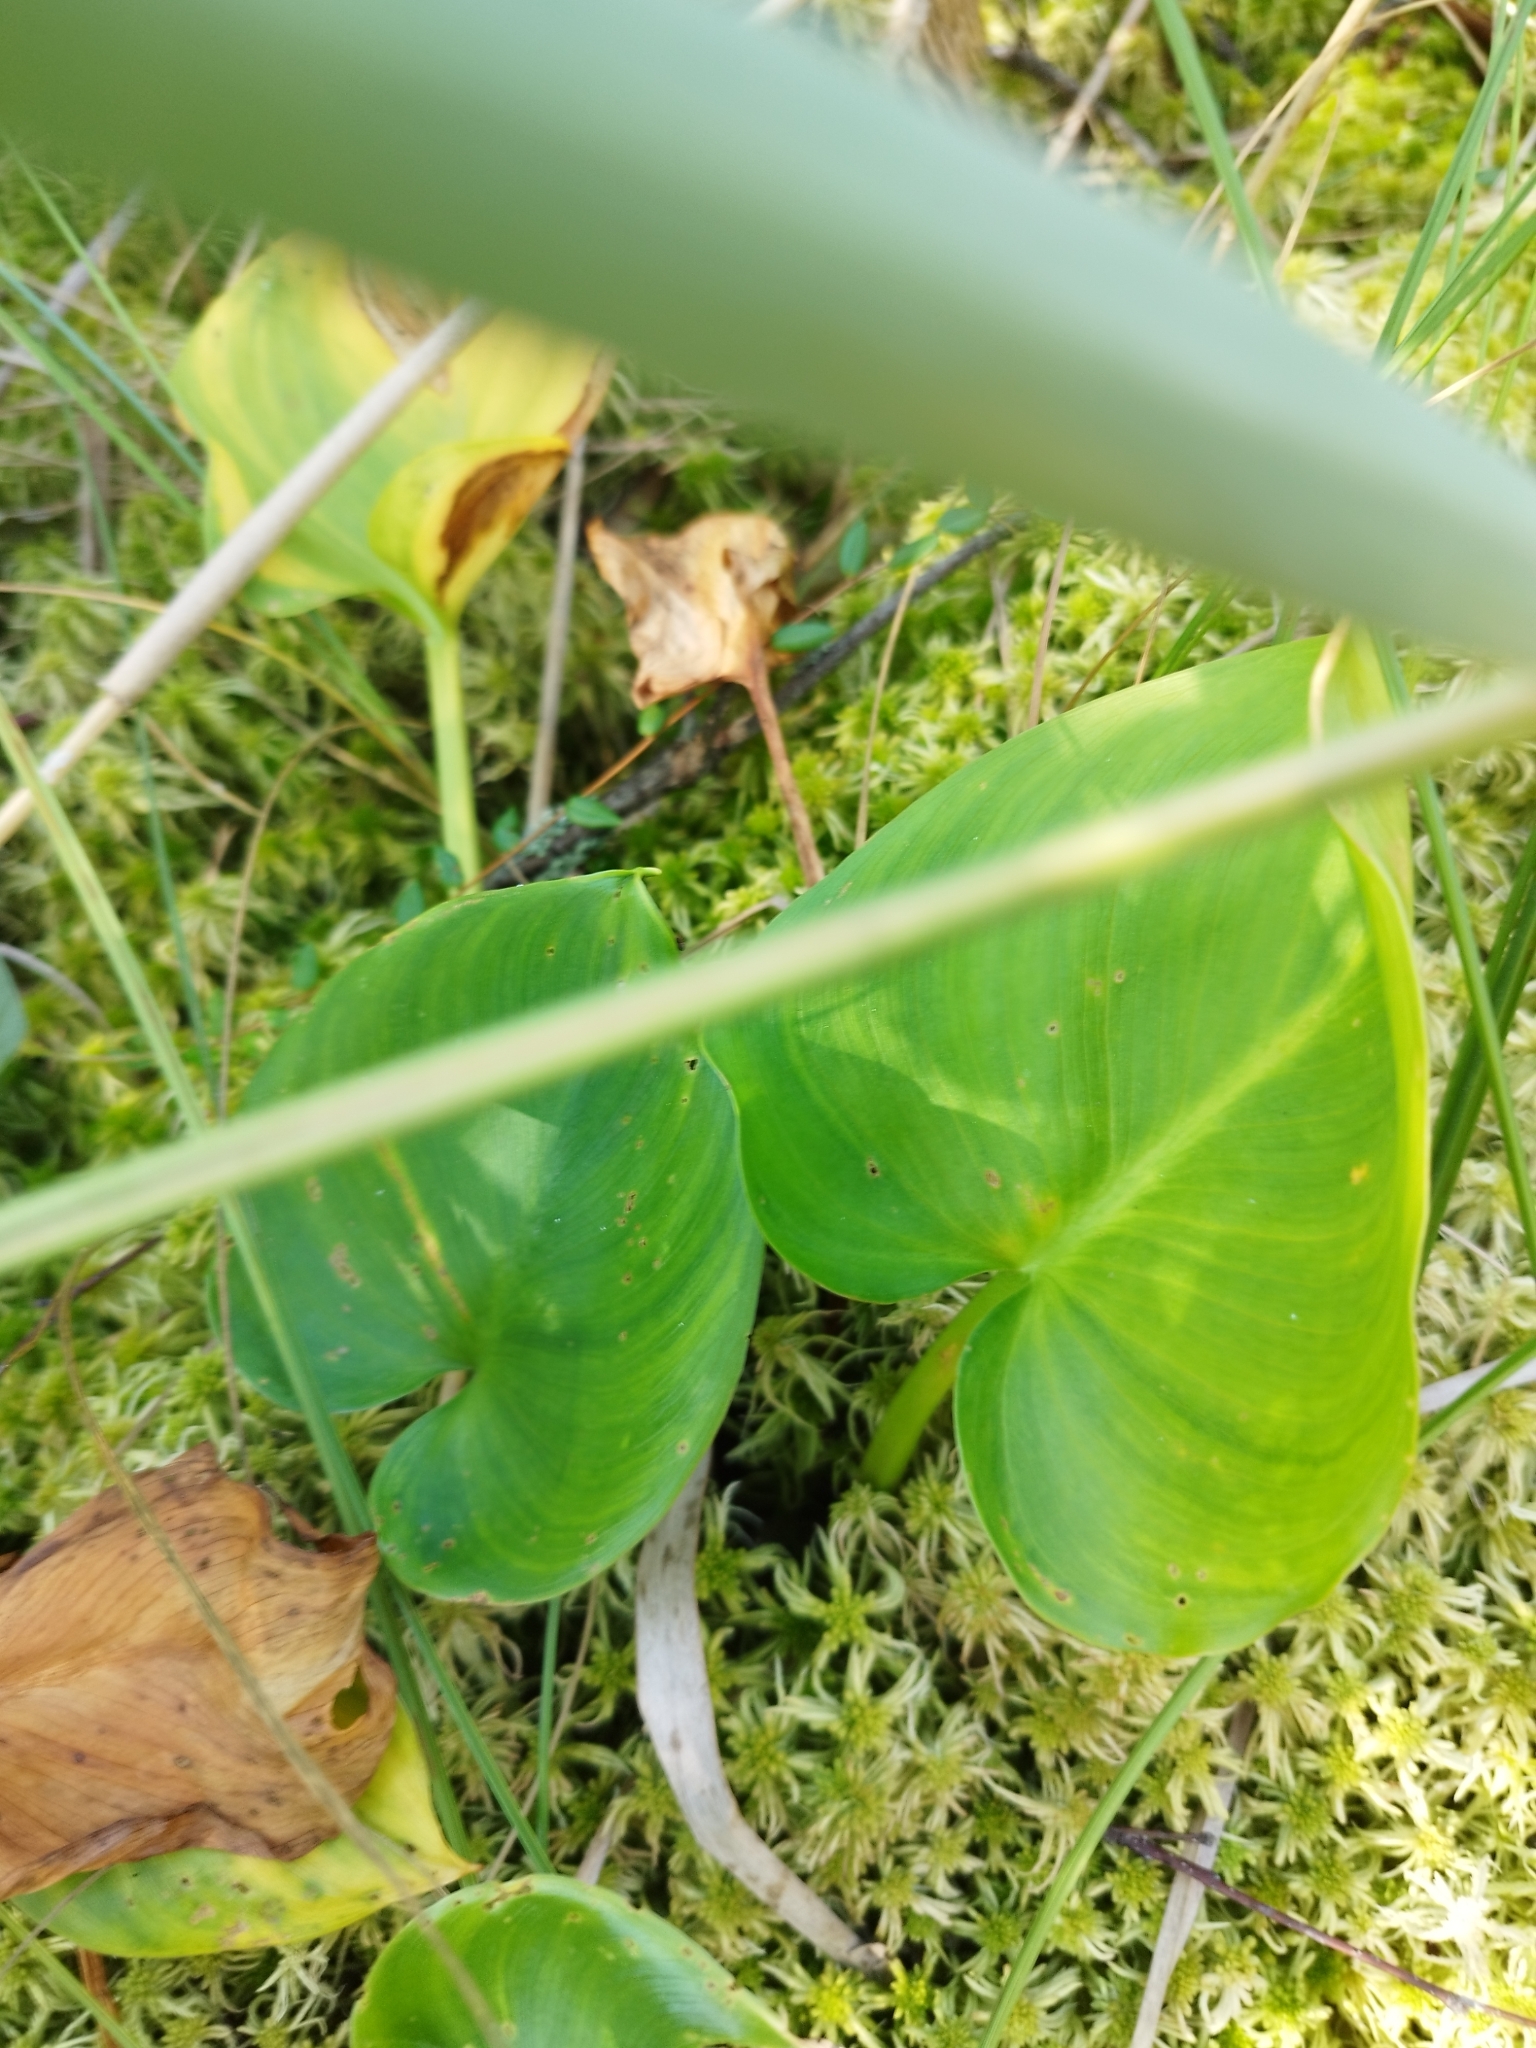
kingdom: Plantae
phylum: Tracheophyta
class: Liliopsida
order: Alismatales
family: Araceae
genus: Calla
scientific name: Calla palustris
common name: Bog arum
